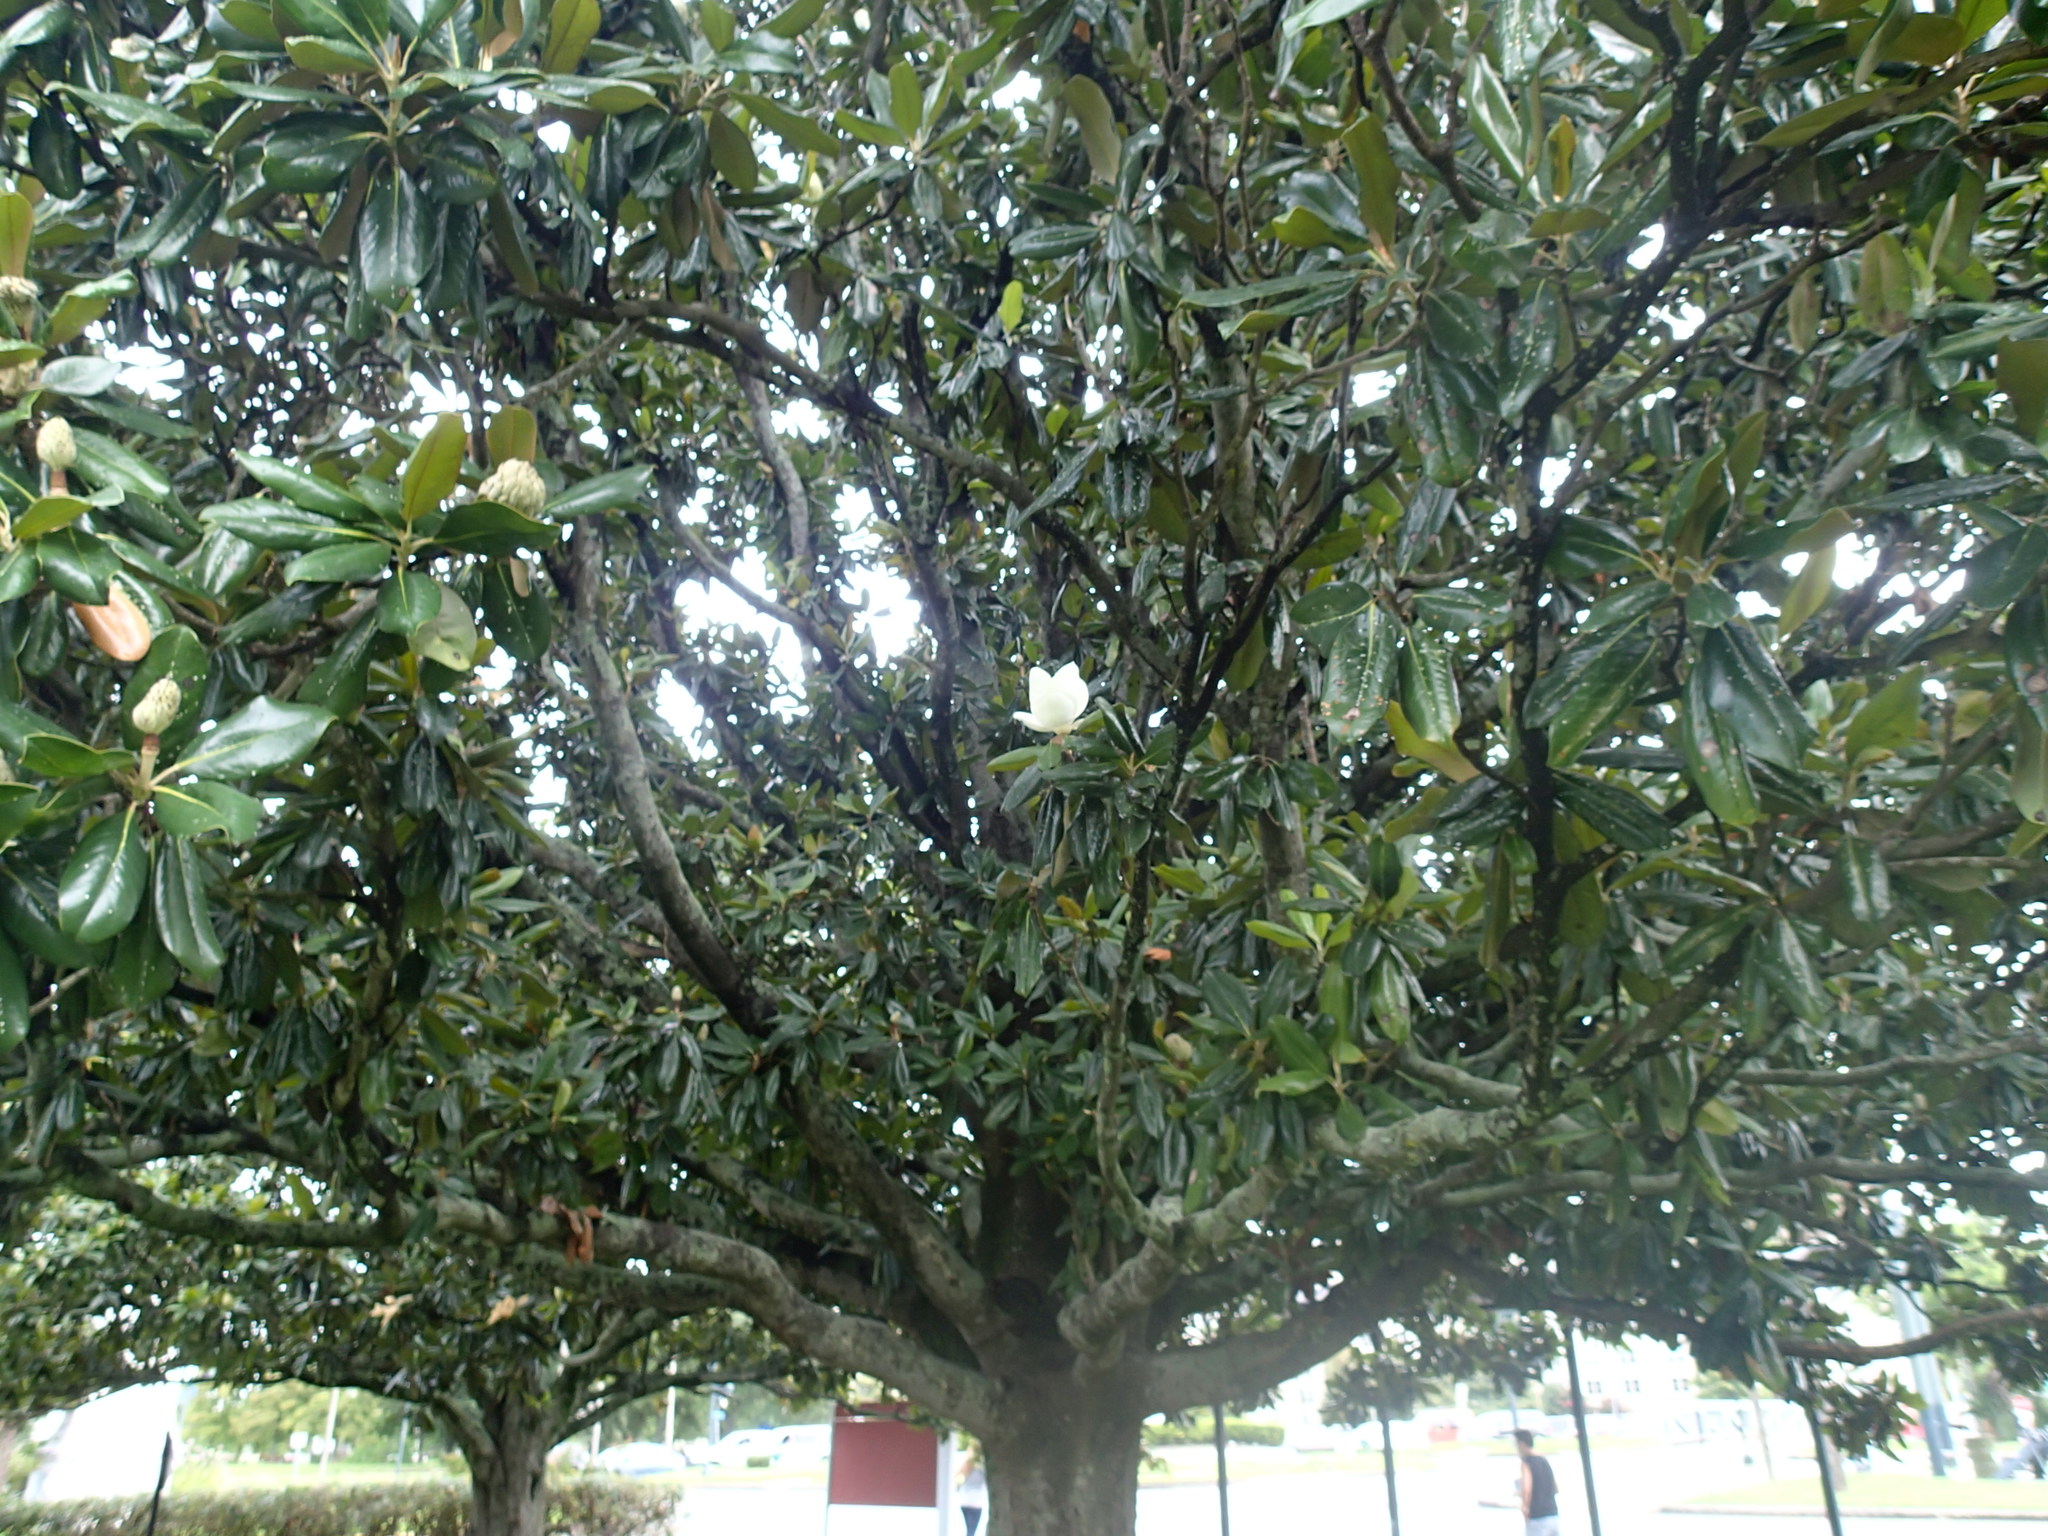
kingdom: Plantae
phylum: Tracheophyta
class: Magnoliopsida
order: Magnoliales
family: Magnoliaceae
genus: Magnolia
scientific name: Magnolia grandiflora
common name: Southern magnolia
